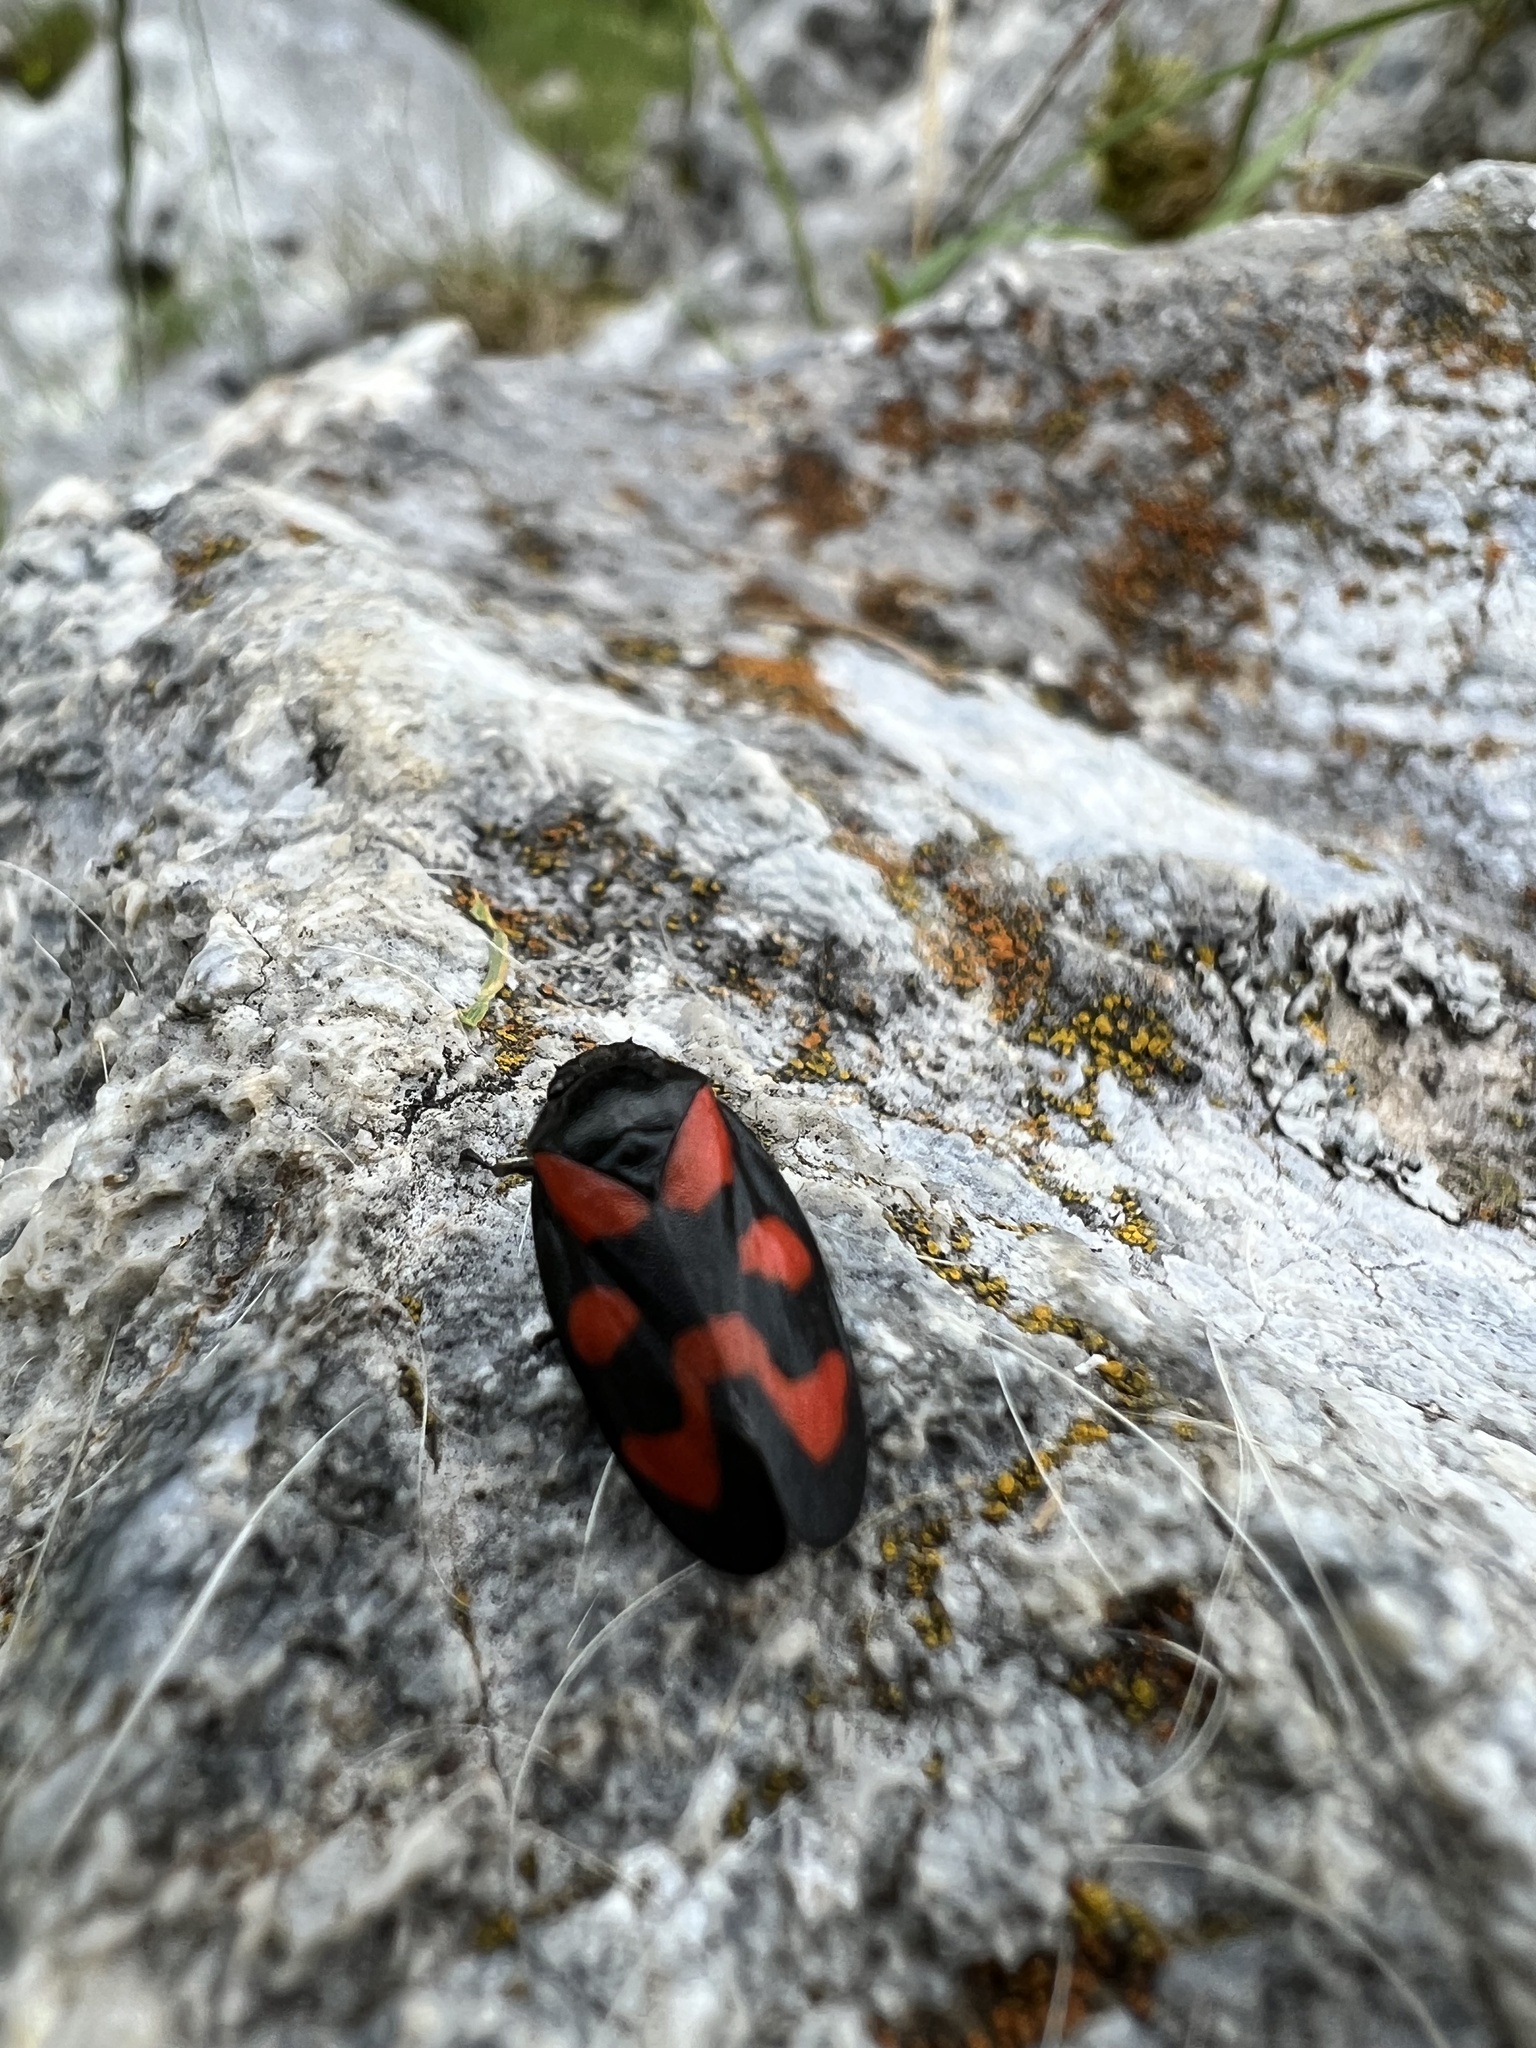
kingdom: Animalia
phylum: Arthropoda
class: Insecta
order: Hemiptera
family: Cercopidae
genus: Cercopis
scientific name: Cercopis vulnerata
